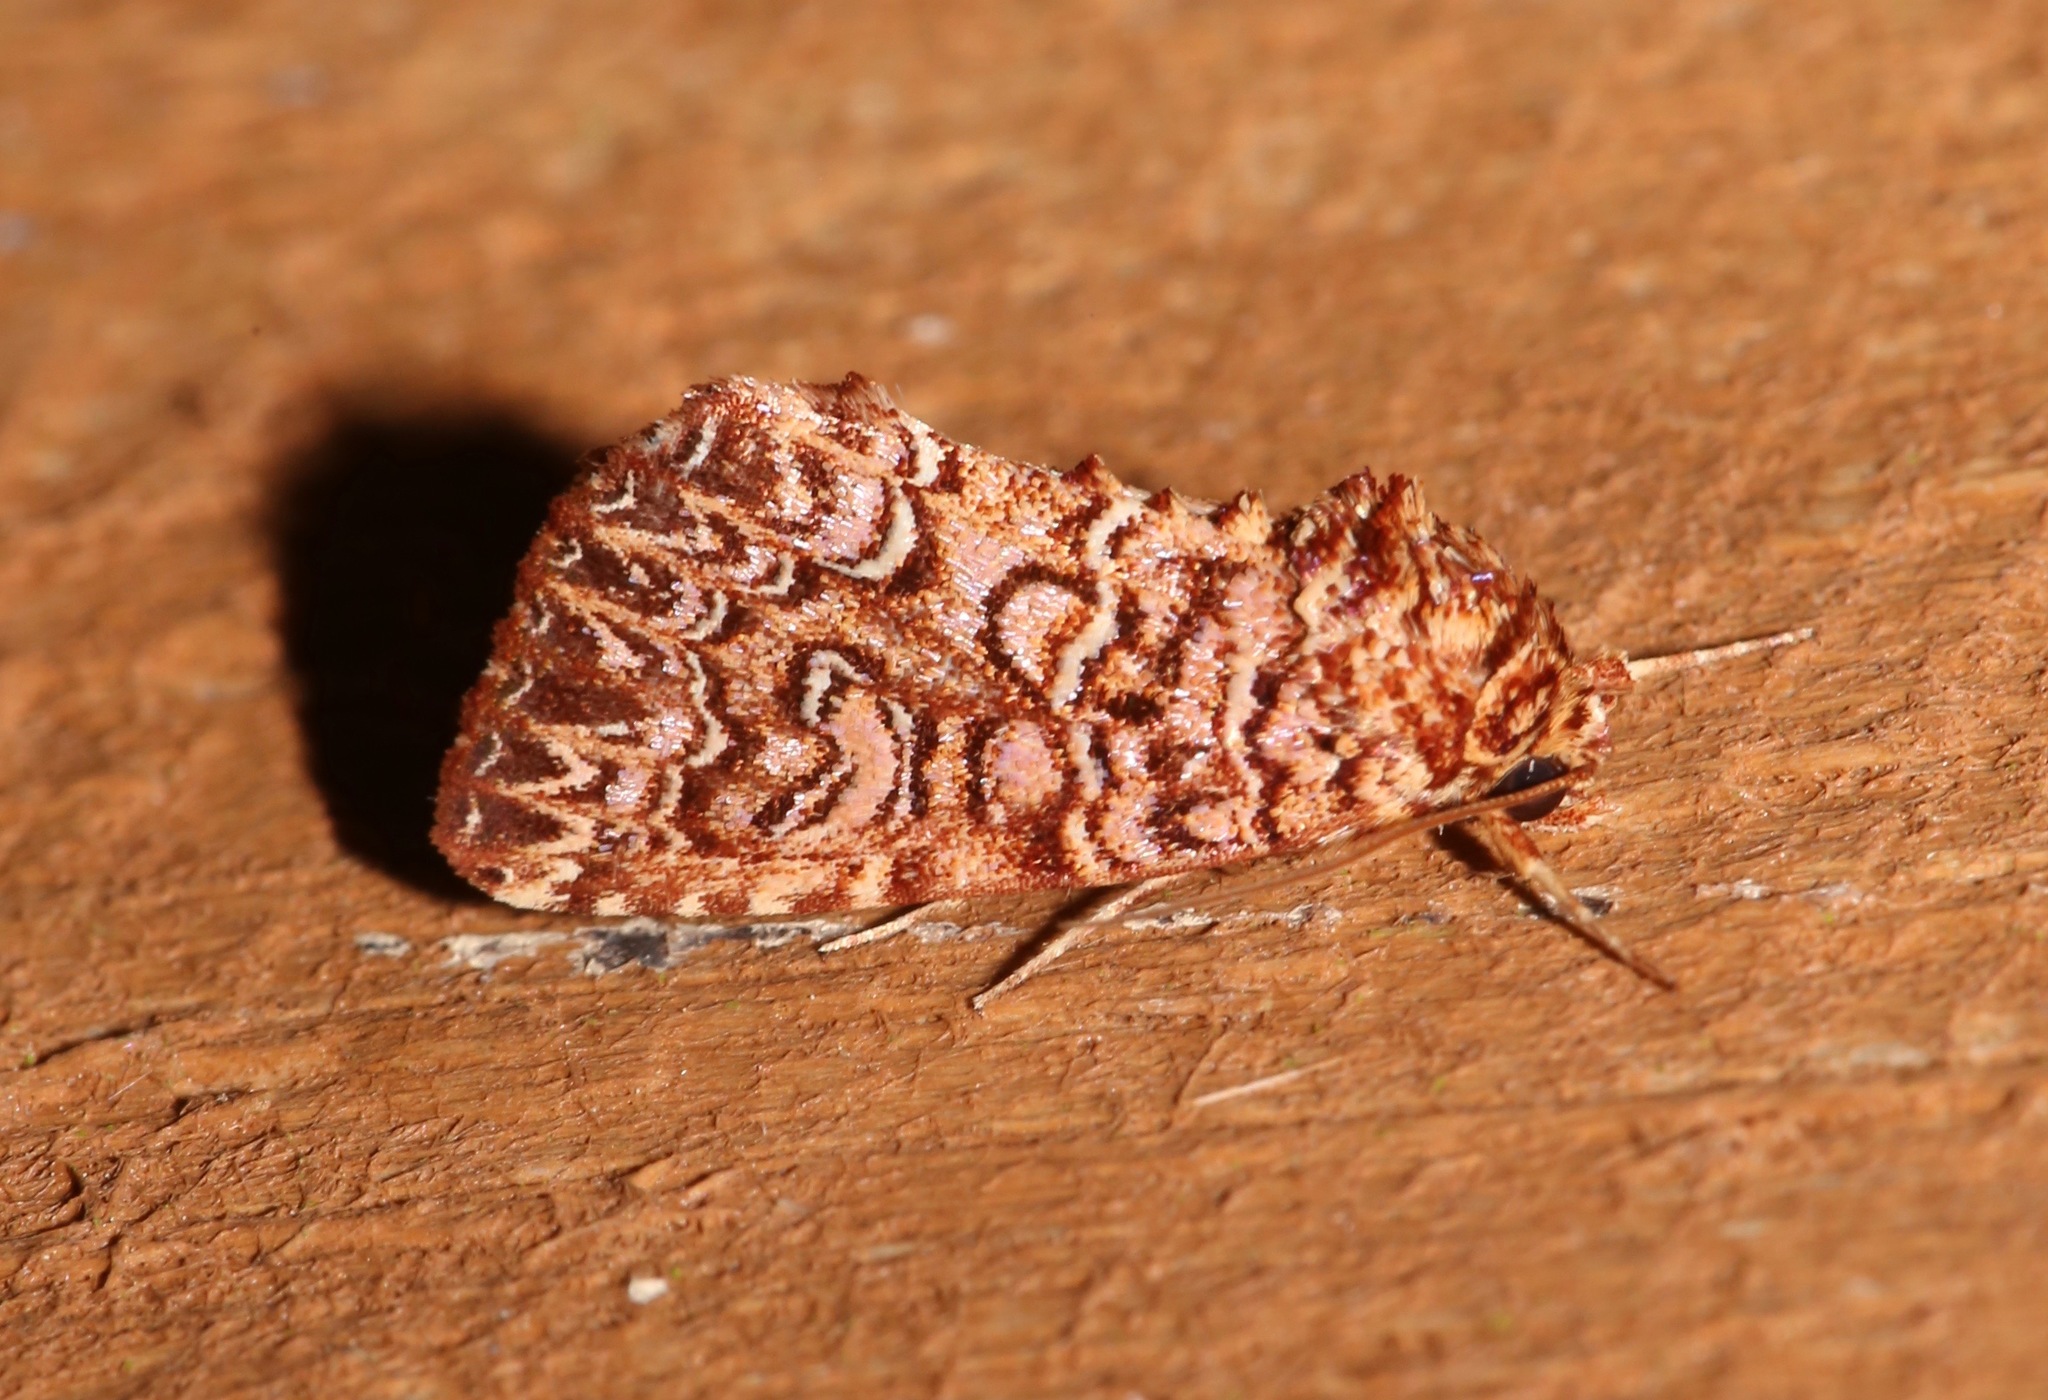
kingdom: Animalia
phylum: Arthropoda
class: Insecta
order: Lepidoptera
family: Noctuidae
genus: Callopistria
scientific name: Callopistria granitosa
